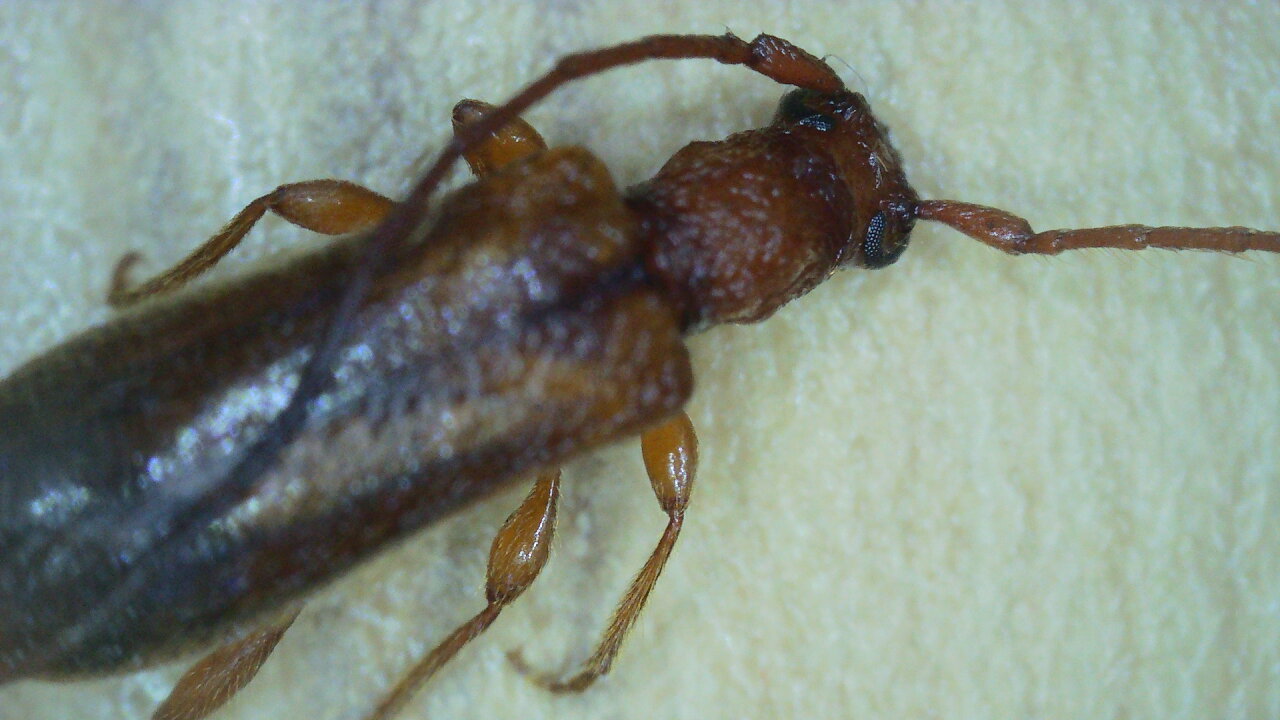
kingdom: Animalia
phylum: Arthropoda
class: Insecta
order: Coleoptera
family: Cerambycidae
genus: Obrium
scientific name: Obrium brunneum
